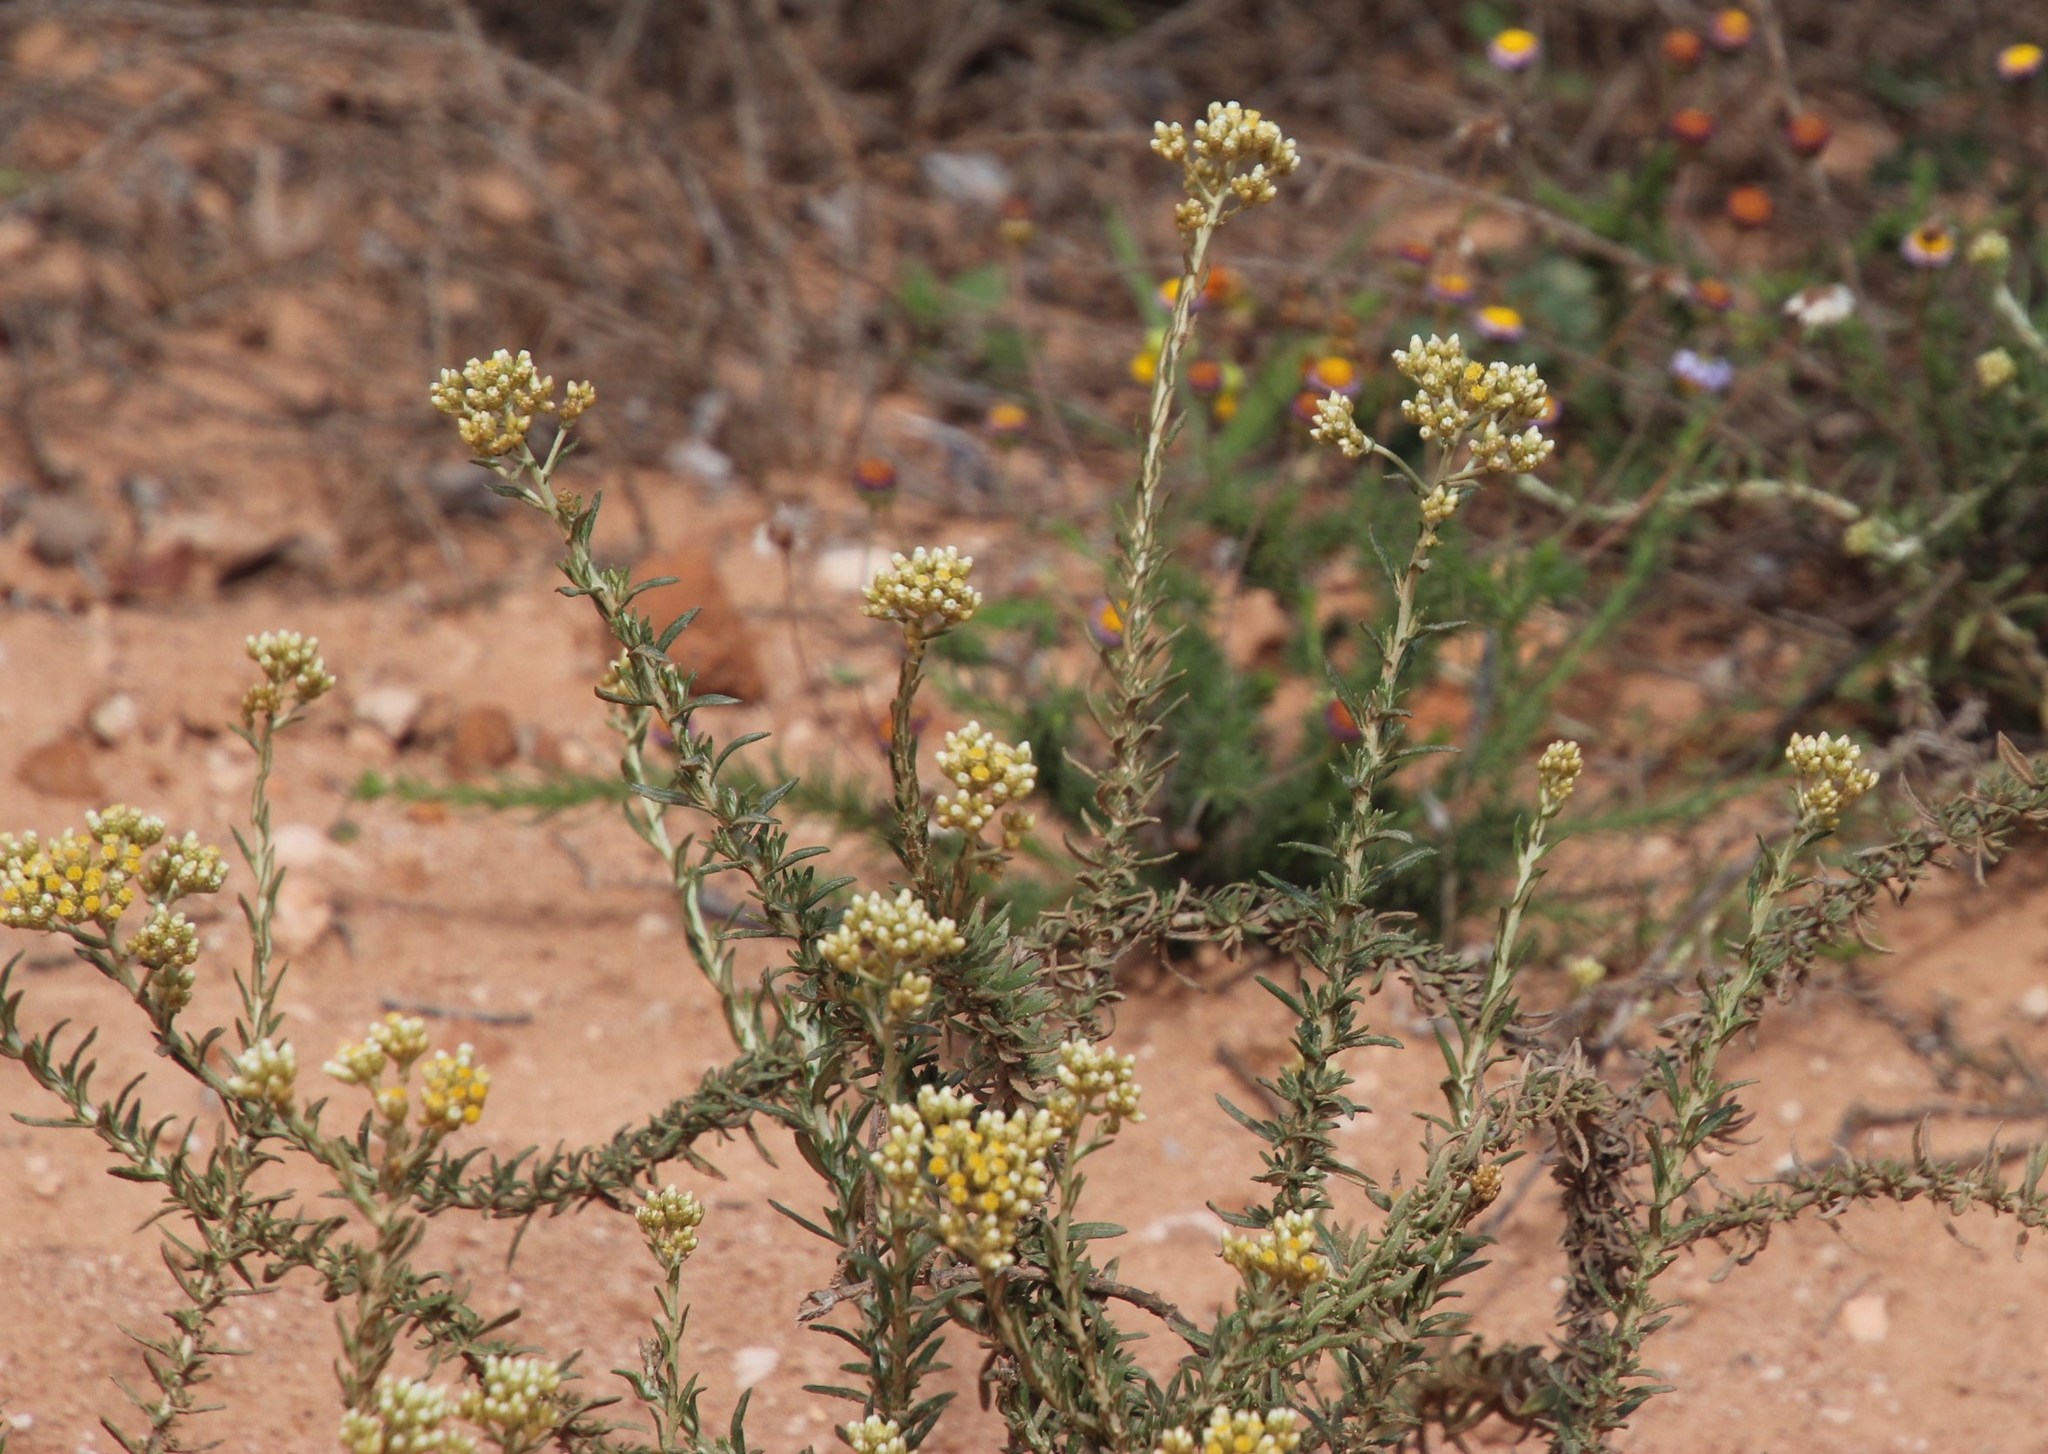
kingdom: Plantae
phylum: Tracheophyta
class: Magnoliopsida
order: Asterales
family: Asteraceae
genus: Helichrysum
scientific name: Helichrysum rosum
